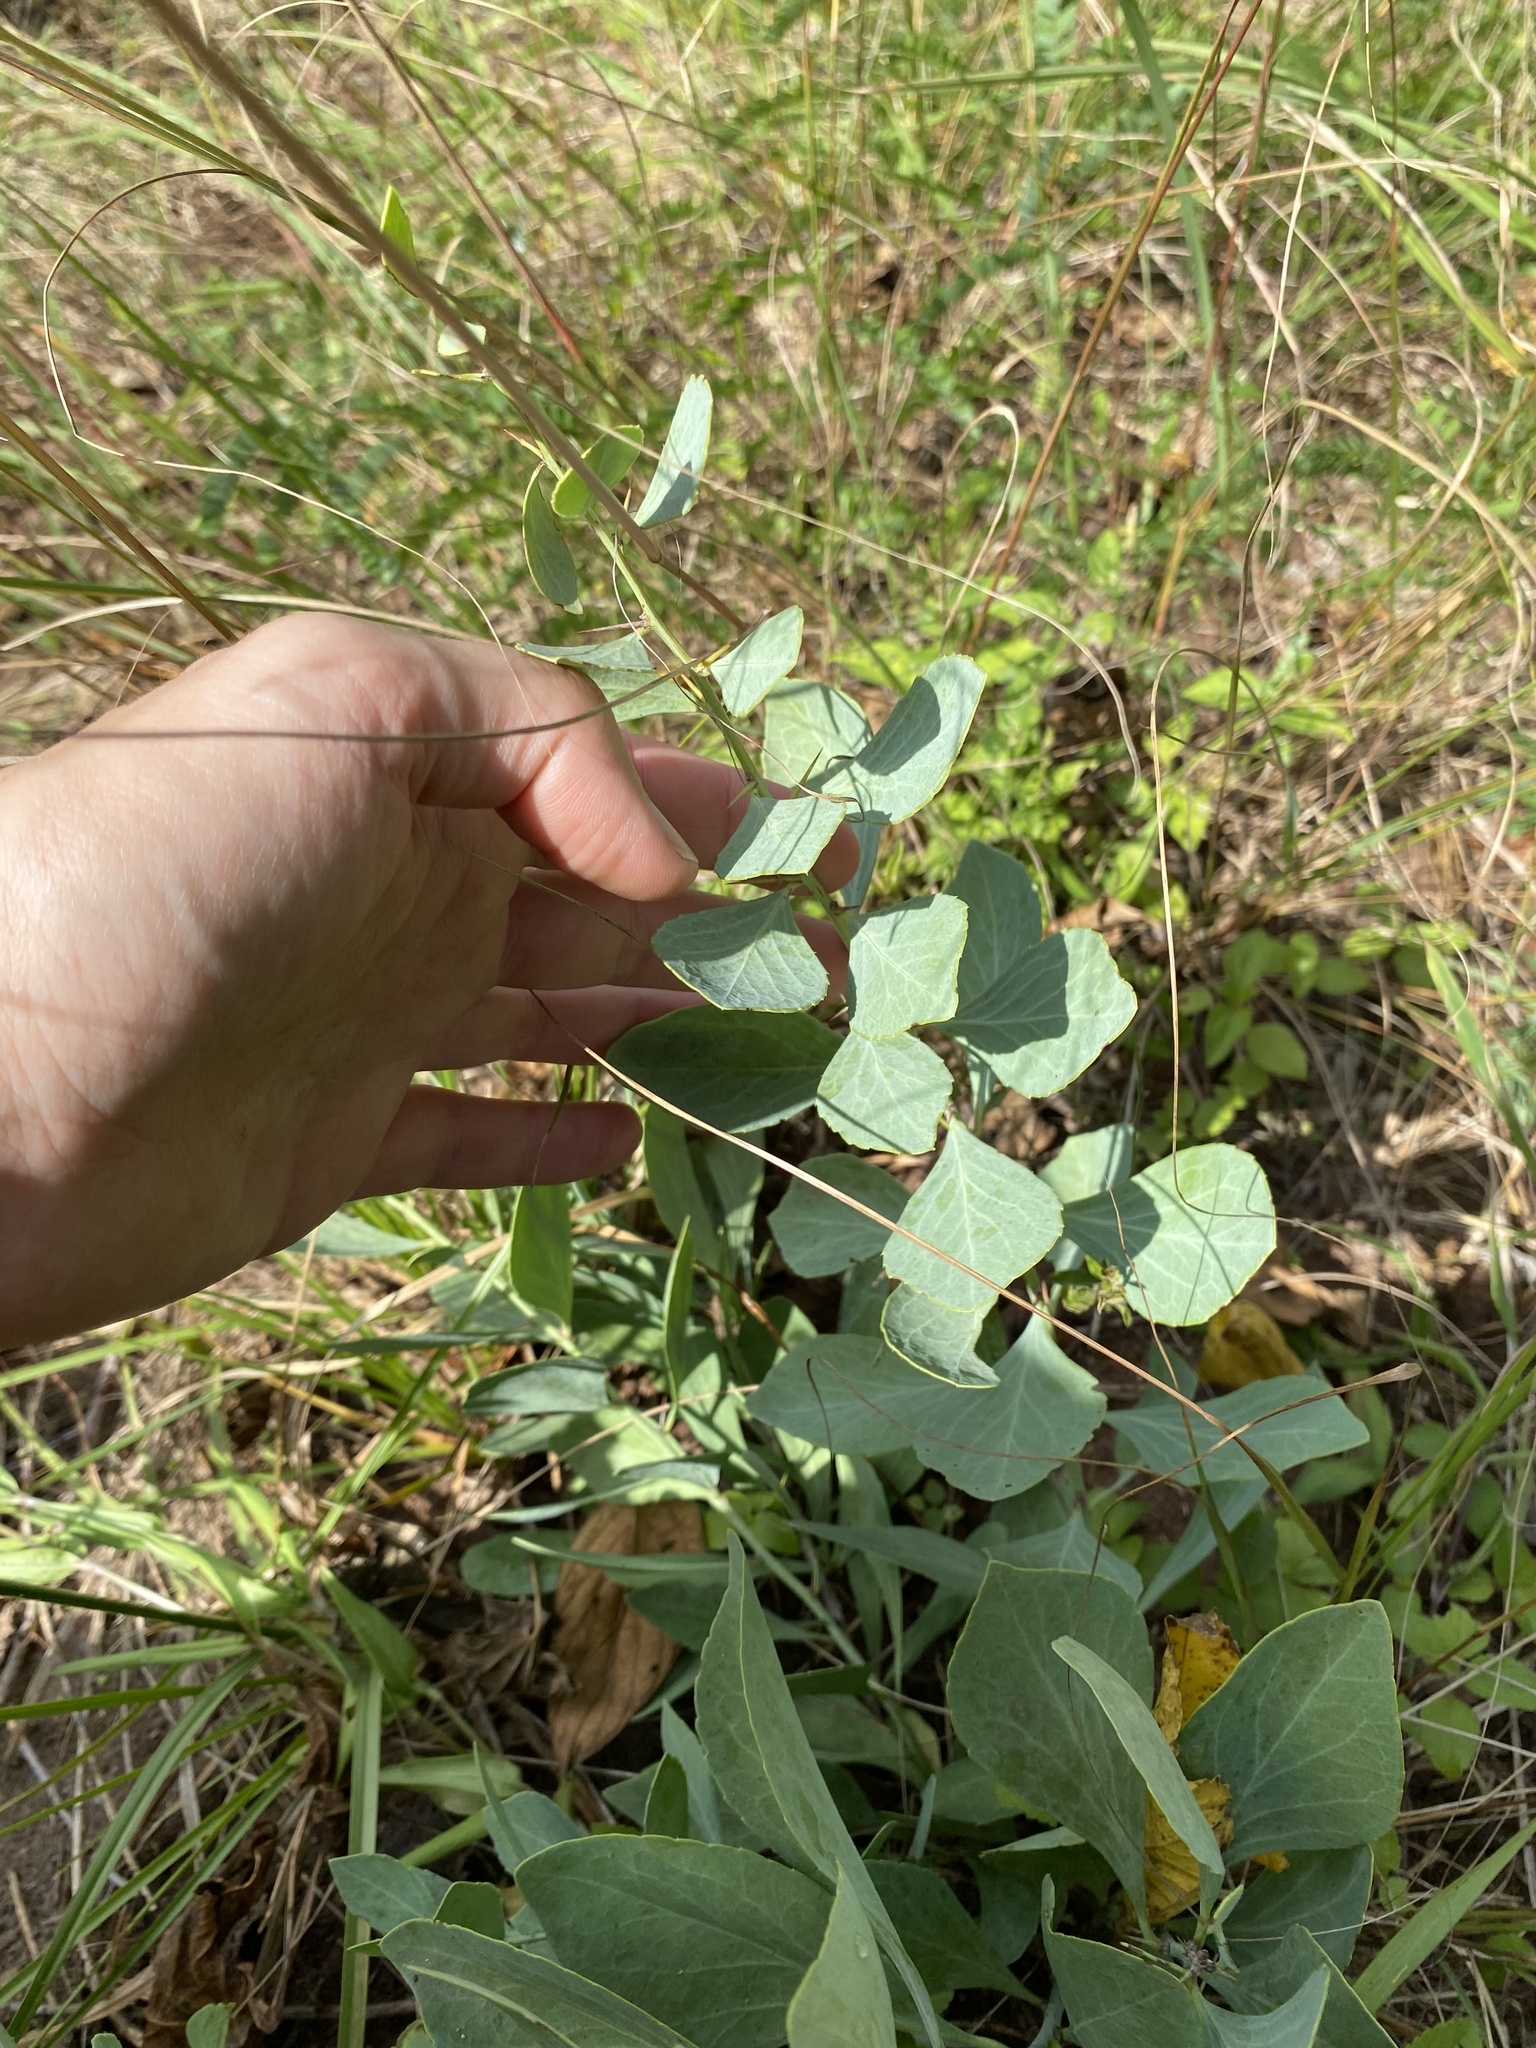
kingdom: Plantae
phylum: Tracheophyta
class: Magnoliopsida
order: Celastrales
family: Celastraceae
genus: Gymnosporia
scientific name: Gymnosporia glaucophylla
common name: Blue spike-thorn
